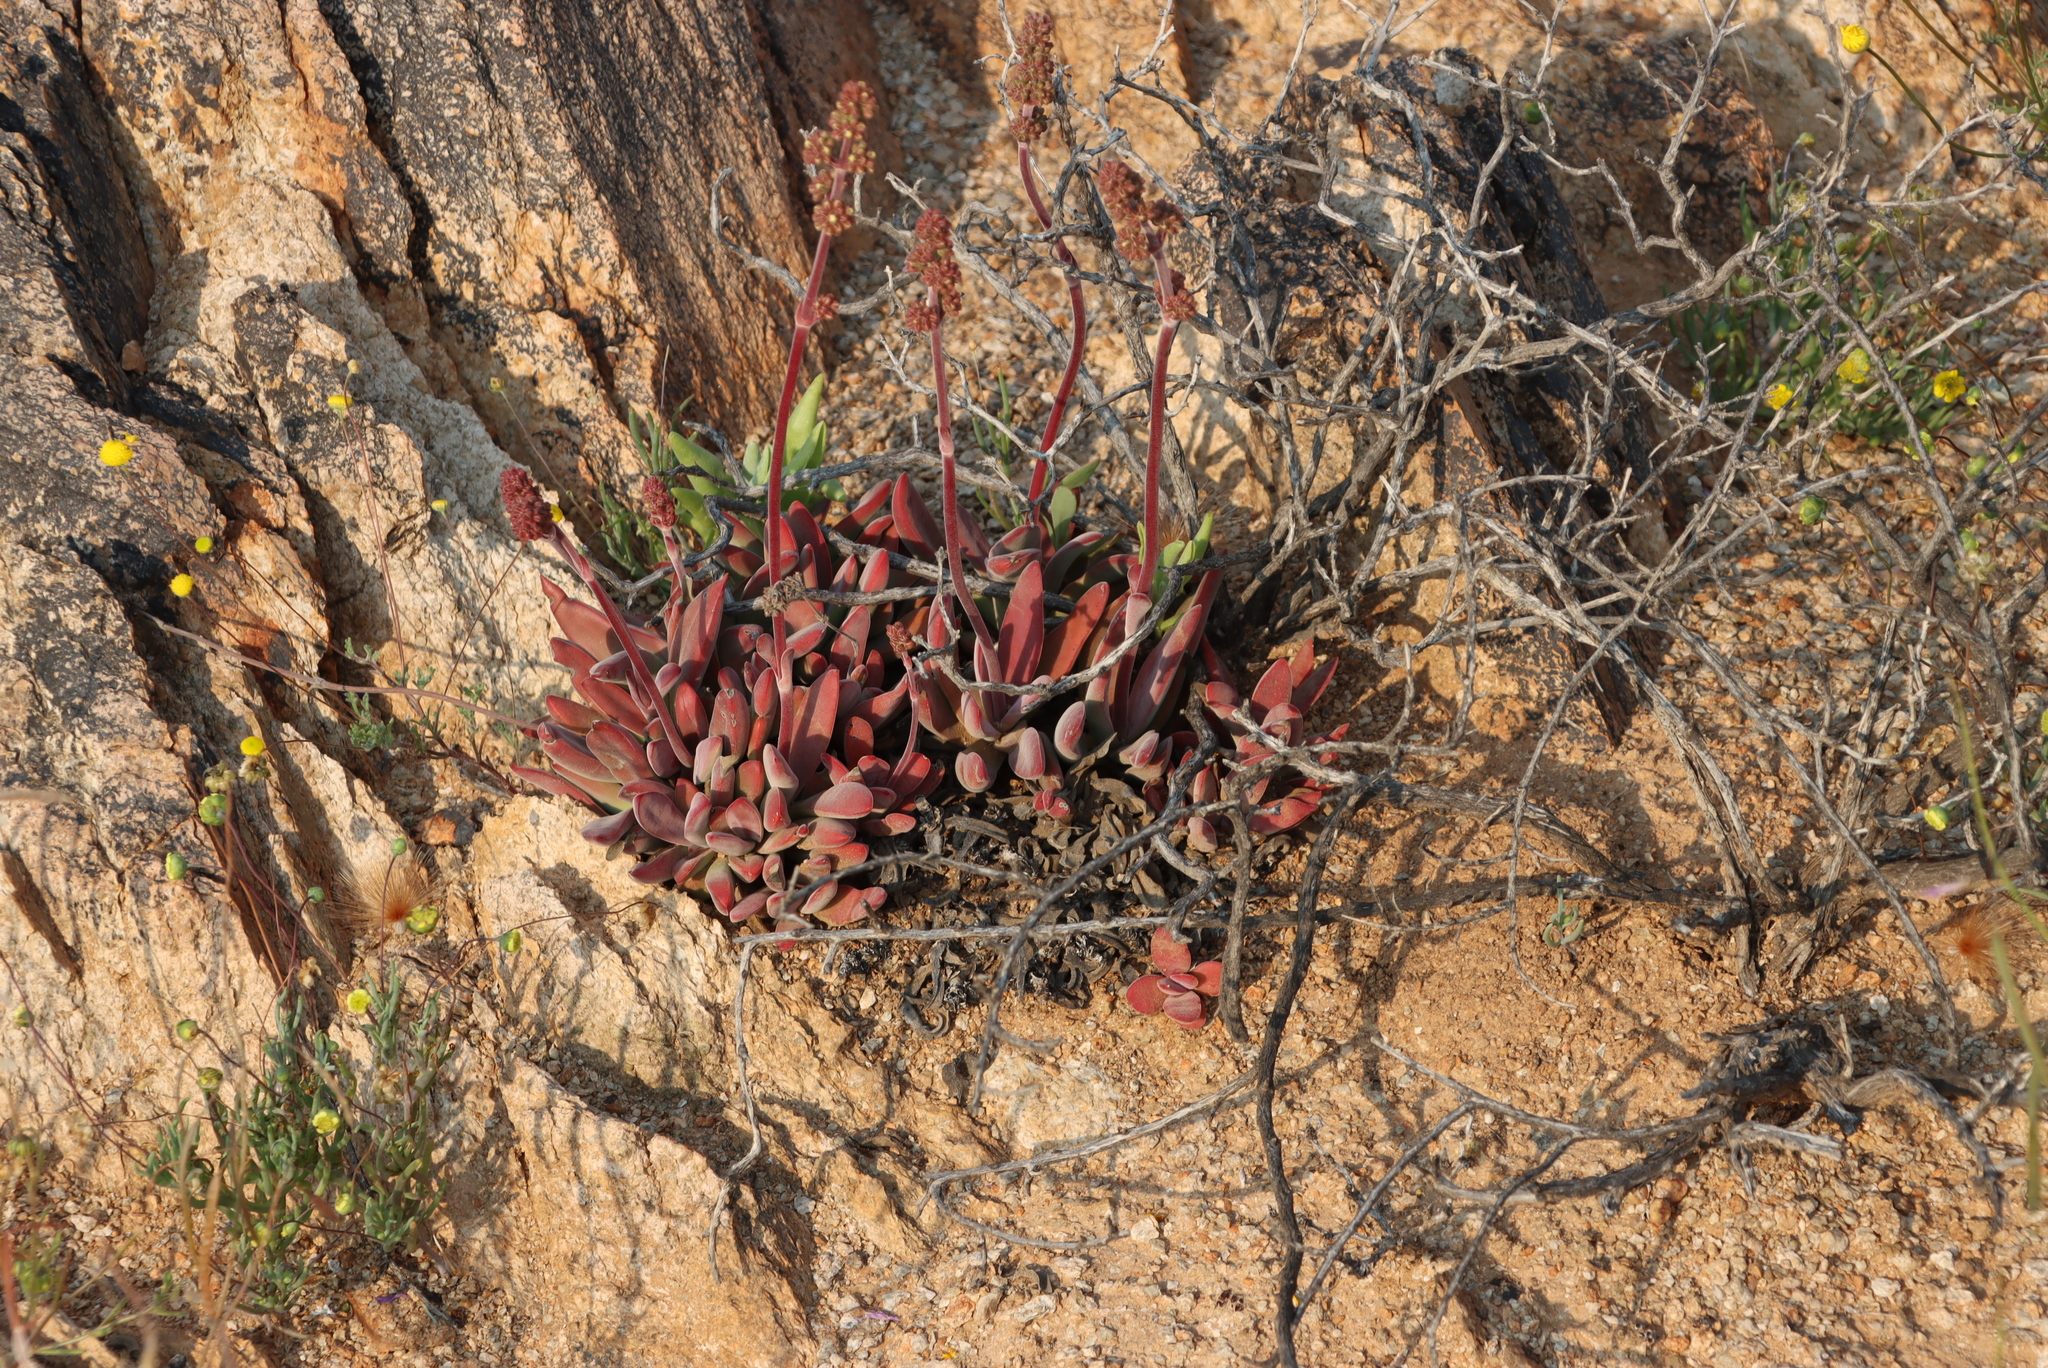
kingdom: Plantae
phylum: Tracheophyta
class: Magnoliopsida
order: Saxifragales
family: Crassulaceae
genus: Crassula
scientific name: Crassula subacaulis
